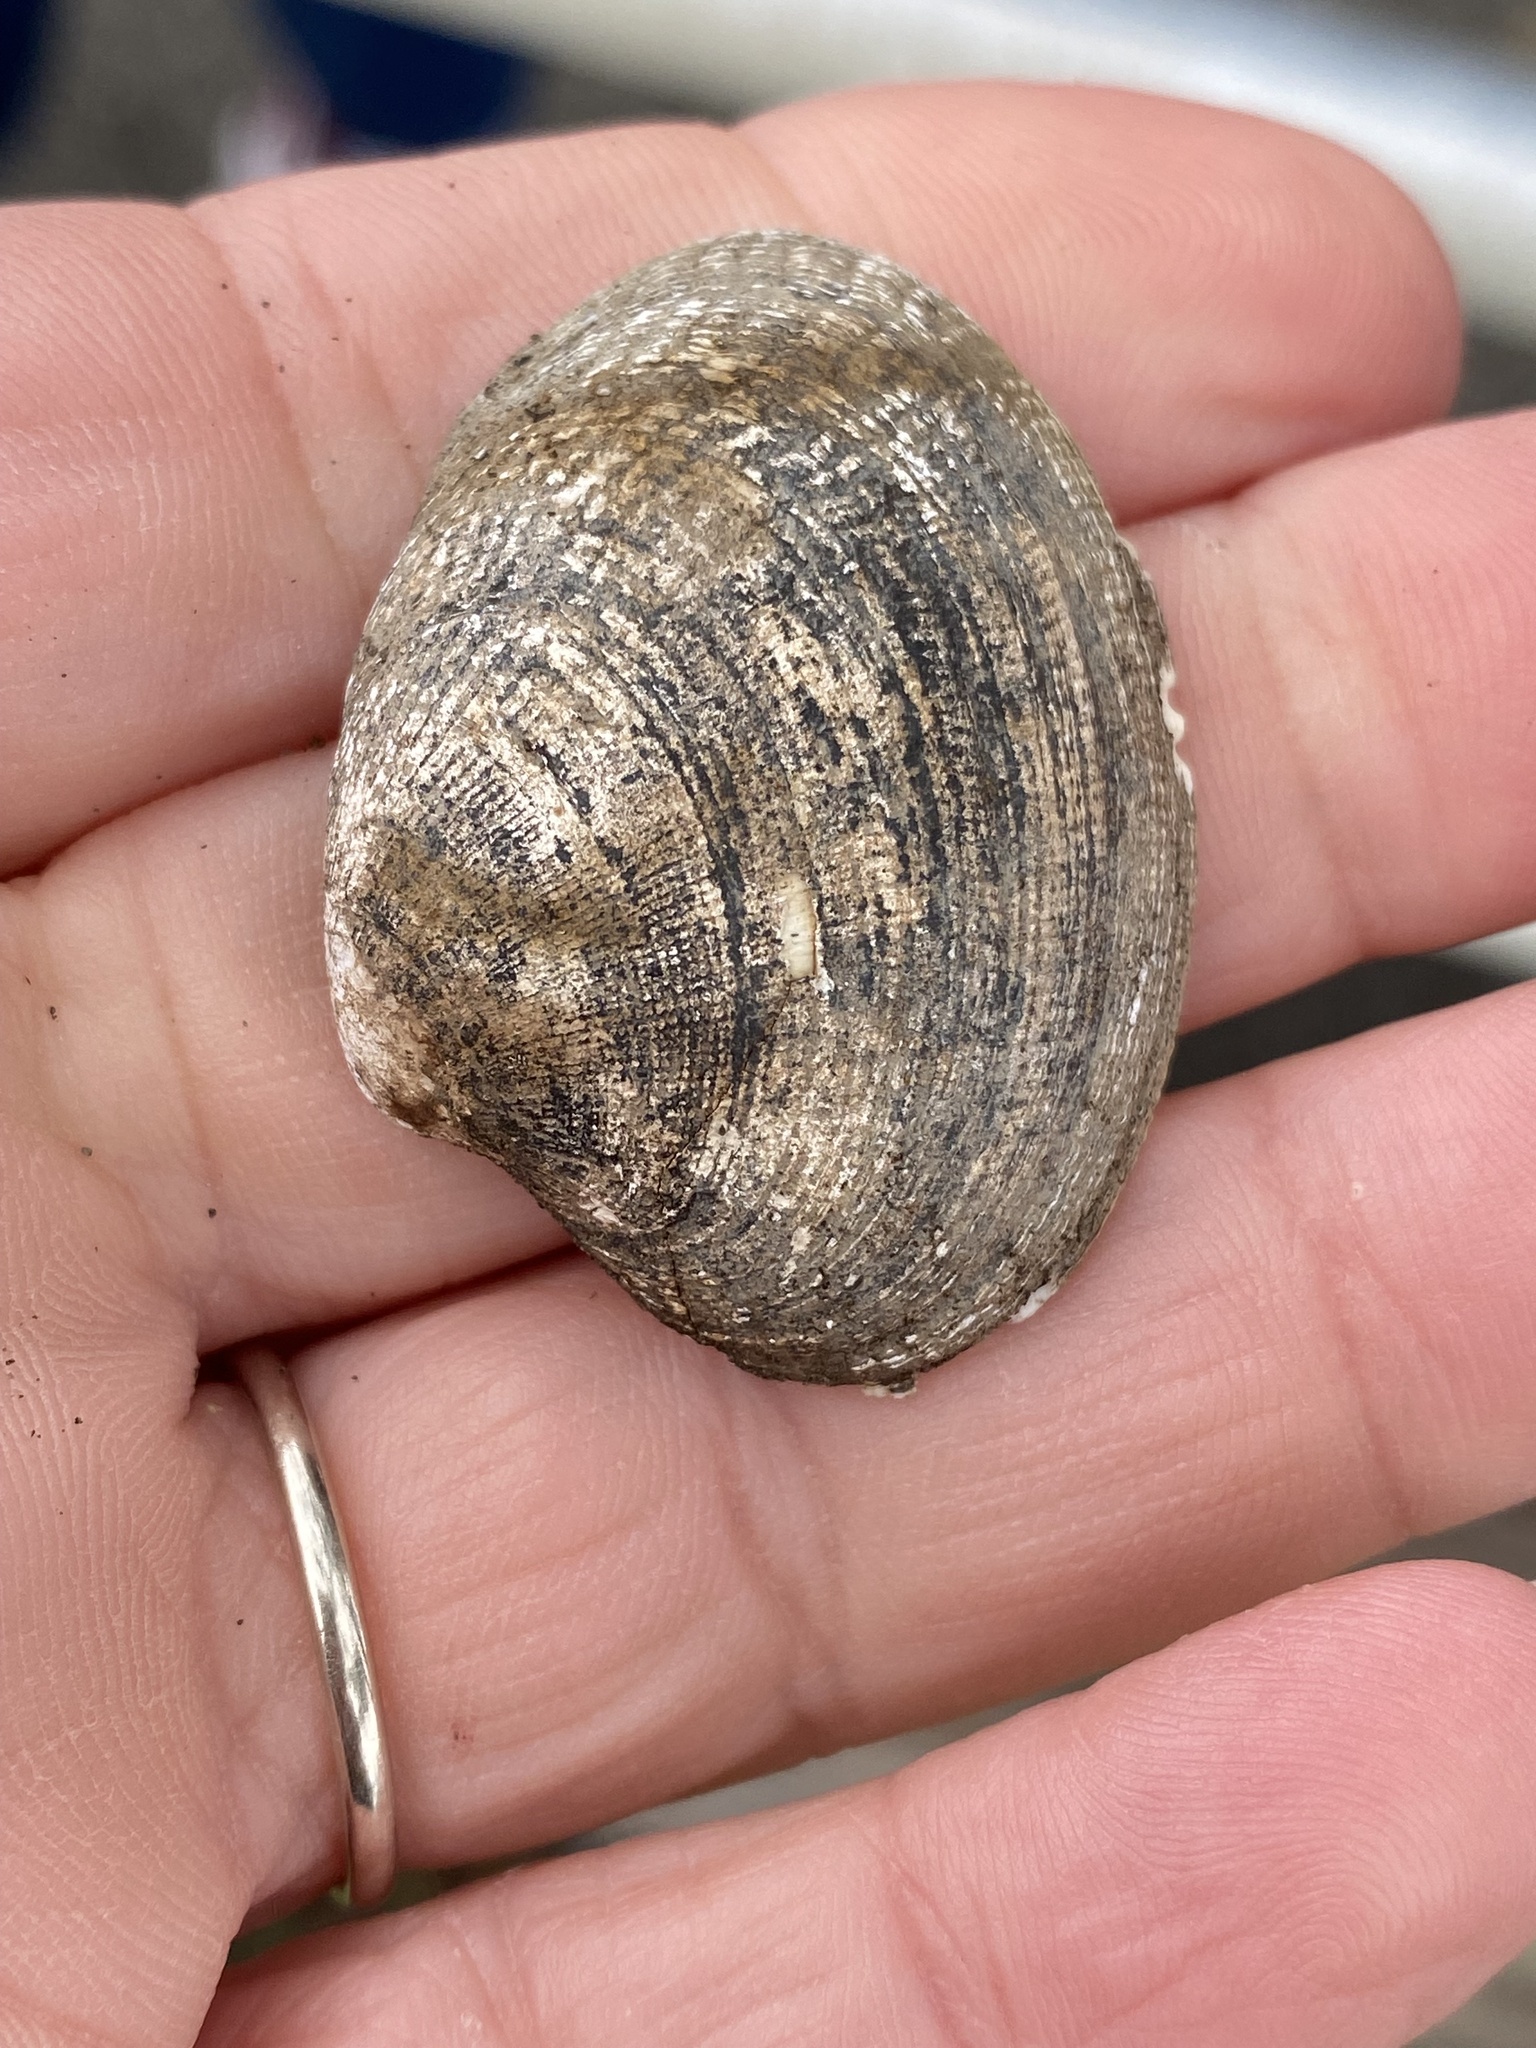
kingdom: Animalia
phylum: Mollusca
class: Bivalvia
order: Venerida
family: Veneridae
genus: Ruditapes
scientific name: Ruditapes philippinarum
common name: Manila clam
